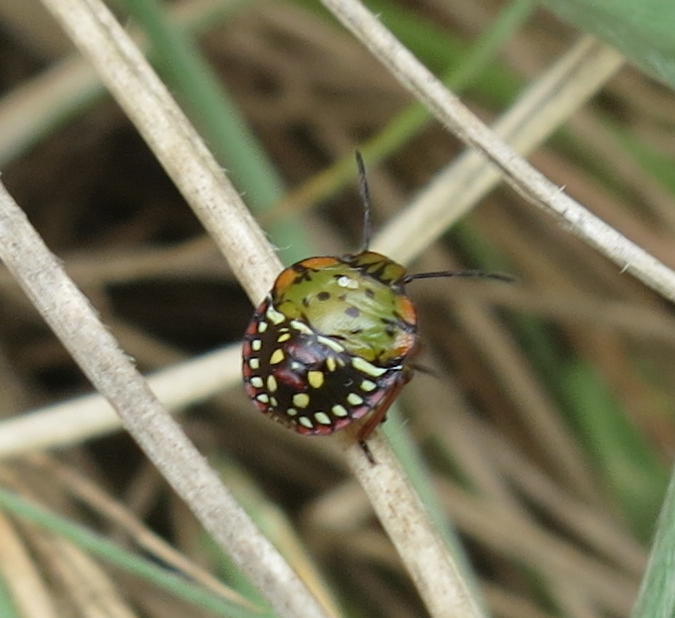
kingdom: Animalia
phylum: Arthropoda
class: Insecta
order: Hemiptera
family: Pentatomidae
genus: Nezara
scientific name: Nezara viridula
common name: Southern green stink bug
